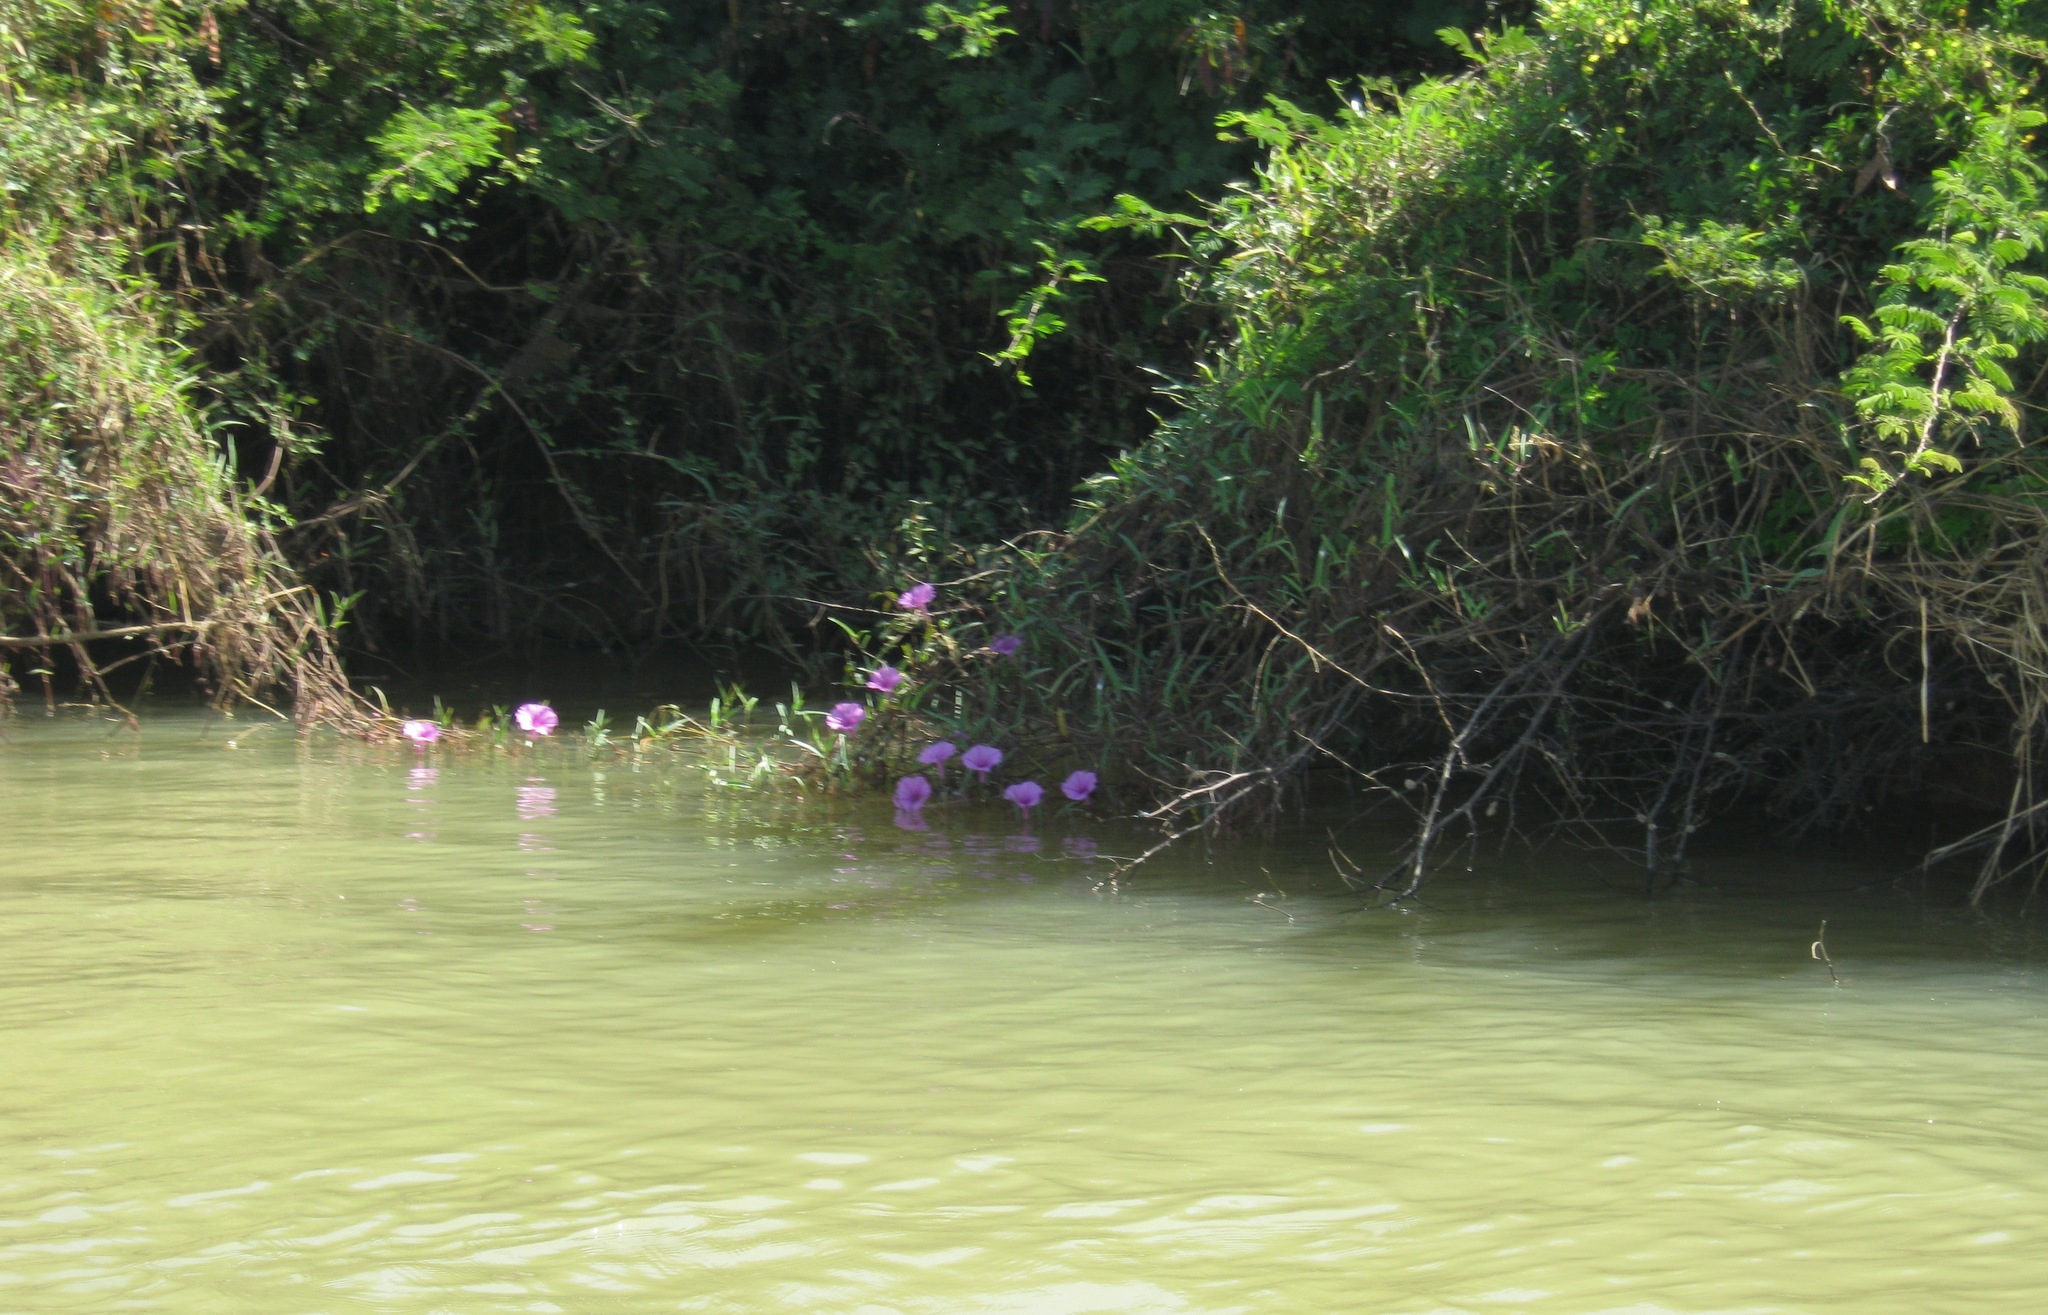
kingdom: Plantae
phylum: Tracheophyta
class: Magnoliopsida
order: Solanales
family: Convolvulaceae
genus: Ipomoea
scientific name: Ipomoea aquatica
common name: Swamp morning-glory
